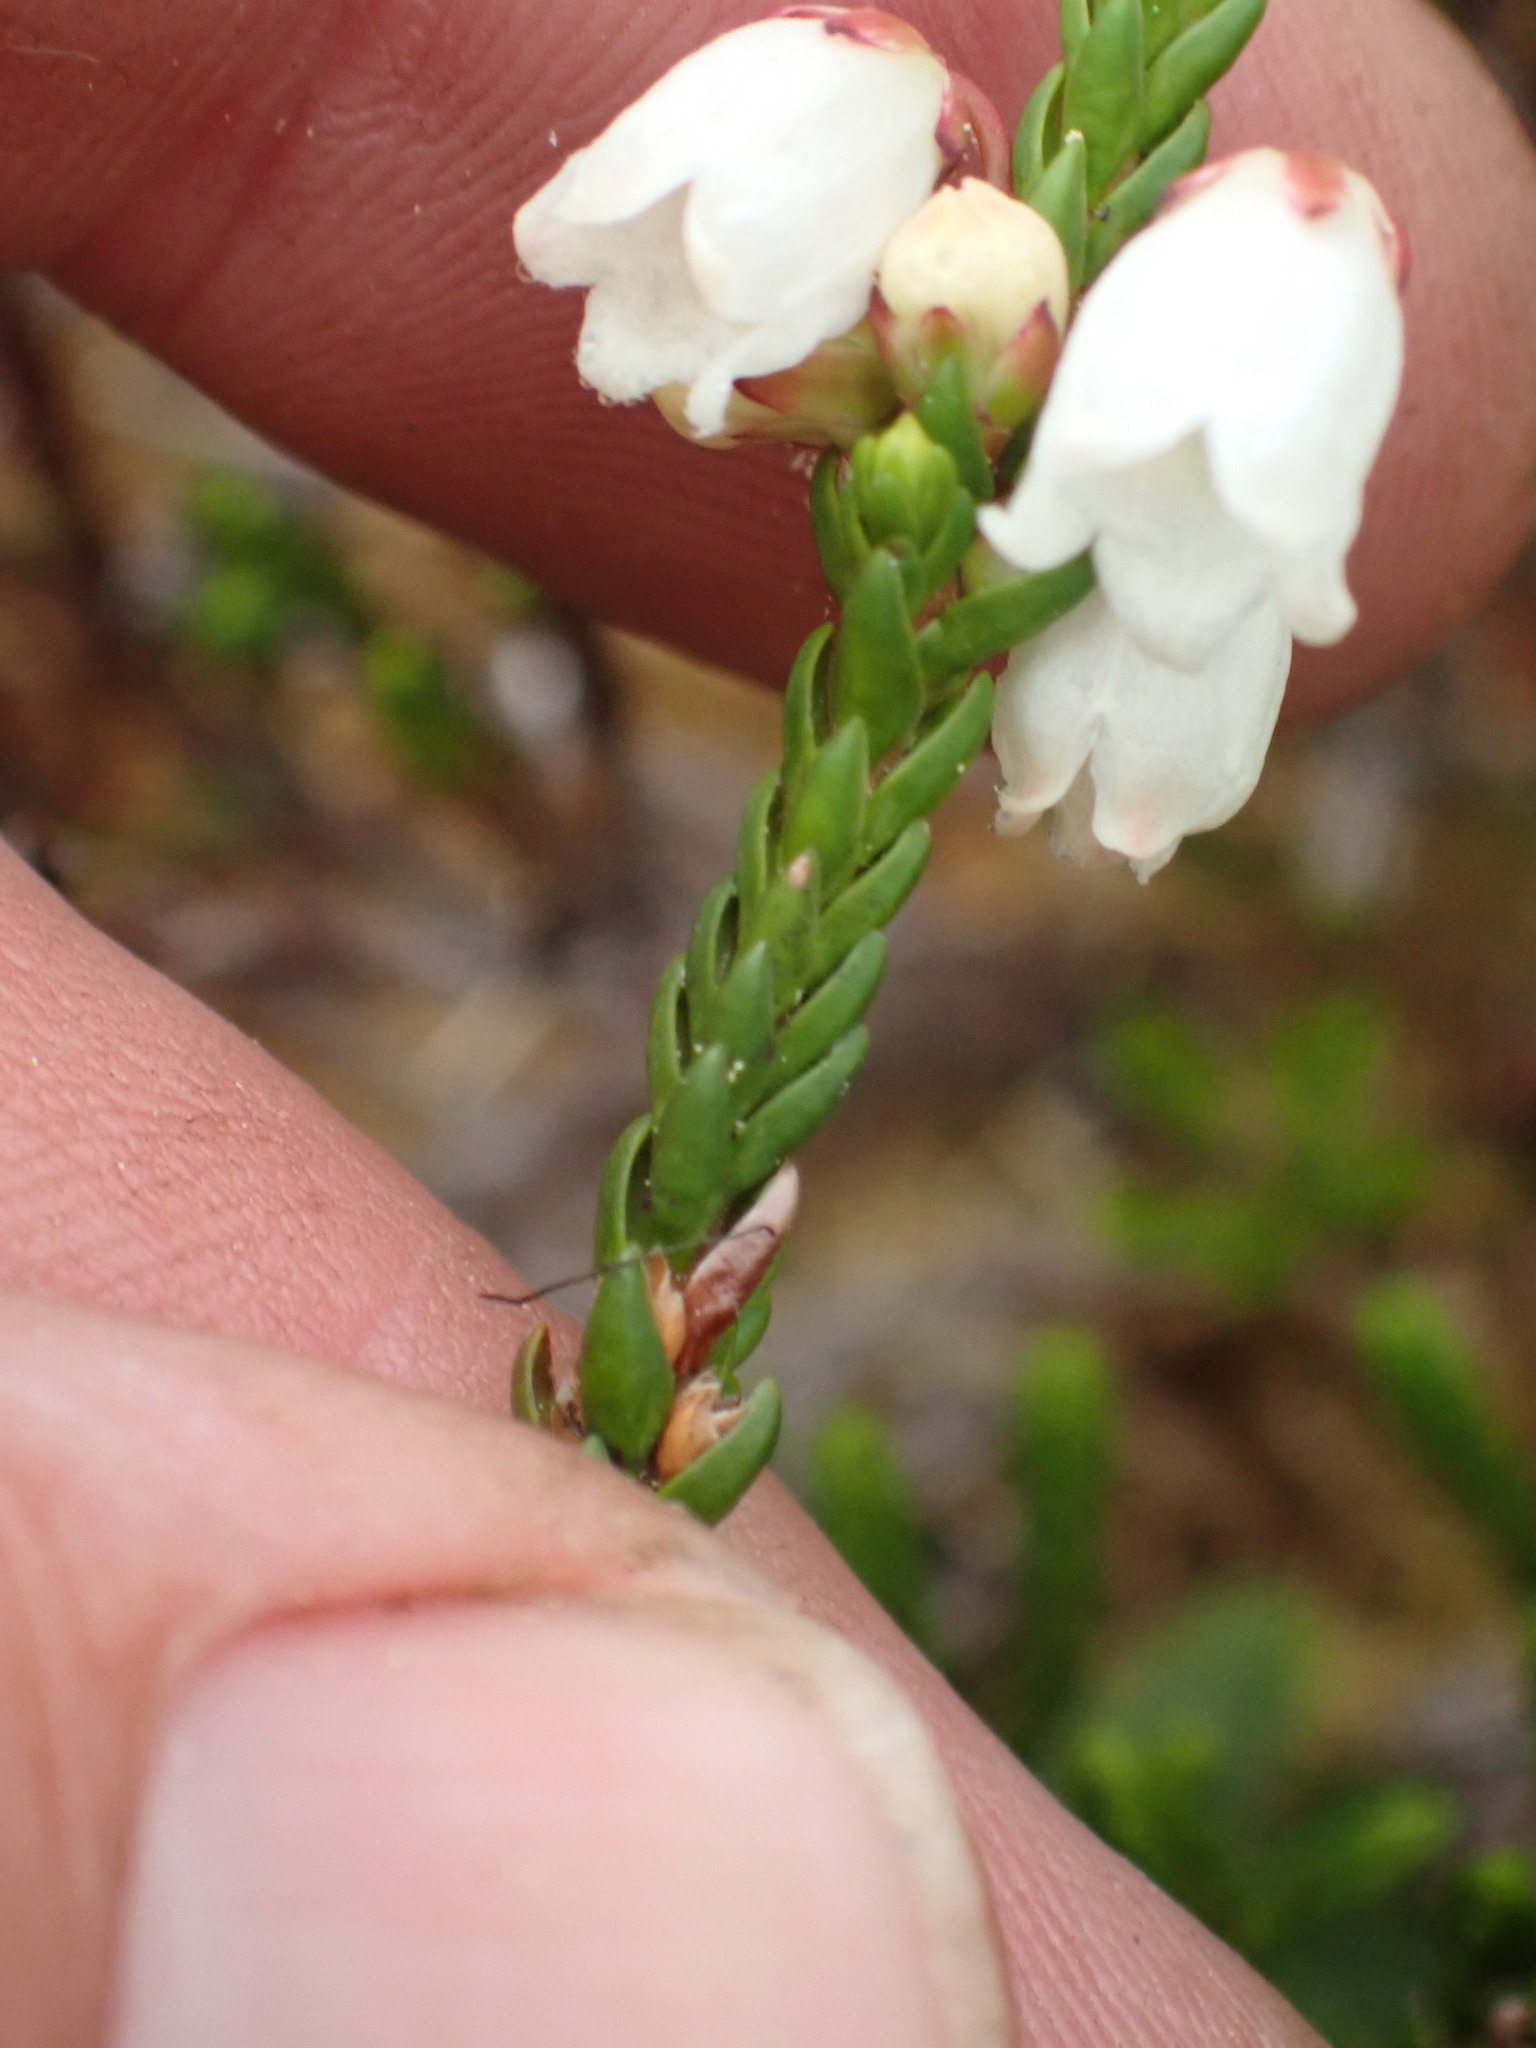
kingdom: Plantae
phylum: Tracheophyta
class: Magnoliopsida
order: Ericales
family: Ericaceae
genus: Cassiope
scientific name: Cassiope mertensiana
